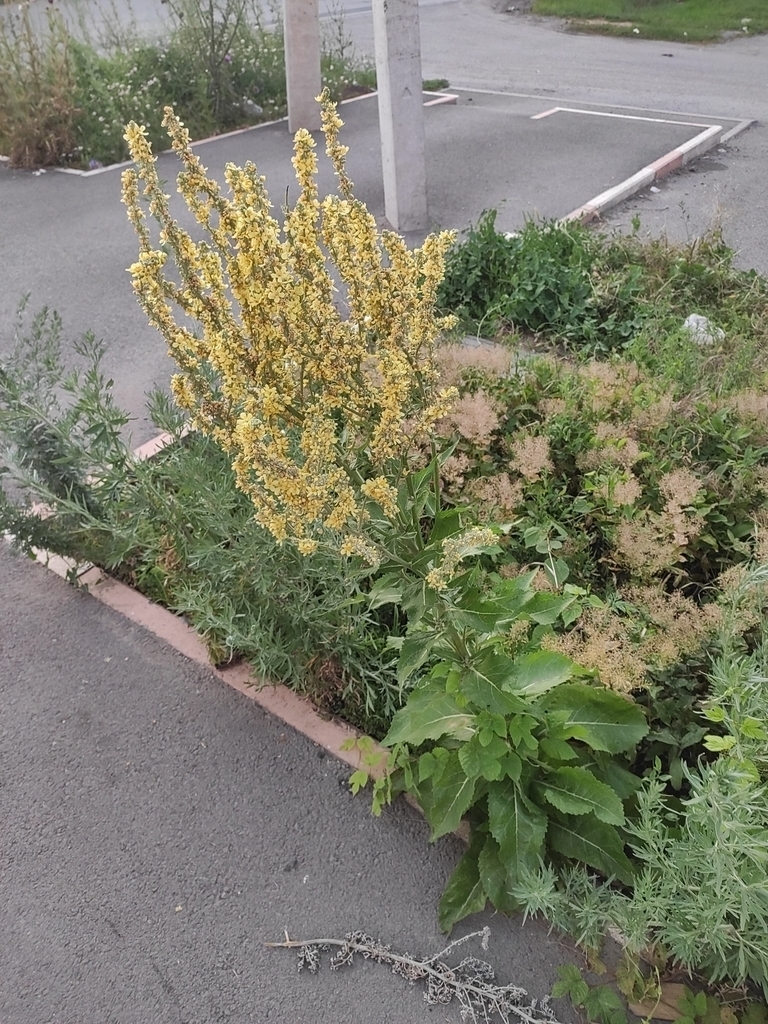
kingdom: Plantae
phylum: Tracheophyta
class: Magnoliopsida
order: Lamiales
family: Scrophulariaceae
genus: Verbascum
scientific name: Verbascum lychnitis
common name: White mullein
